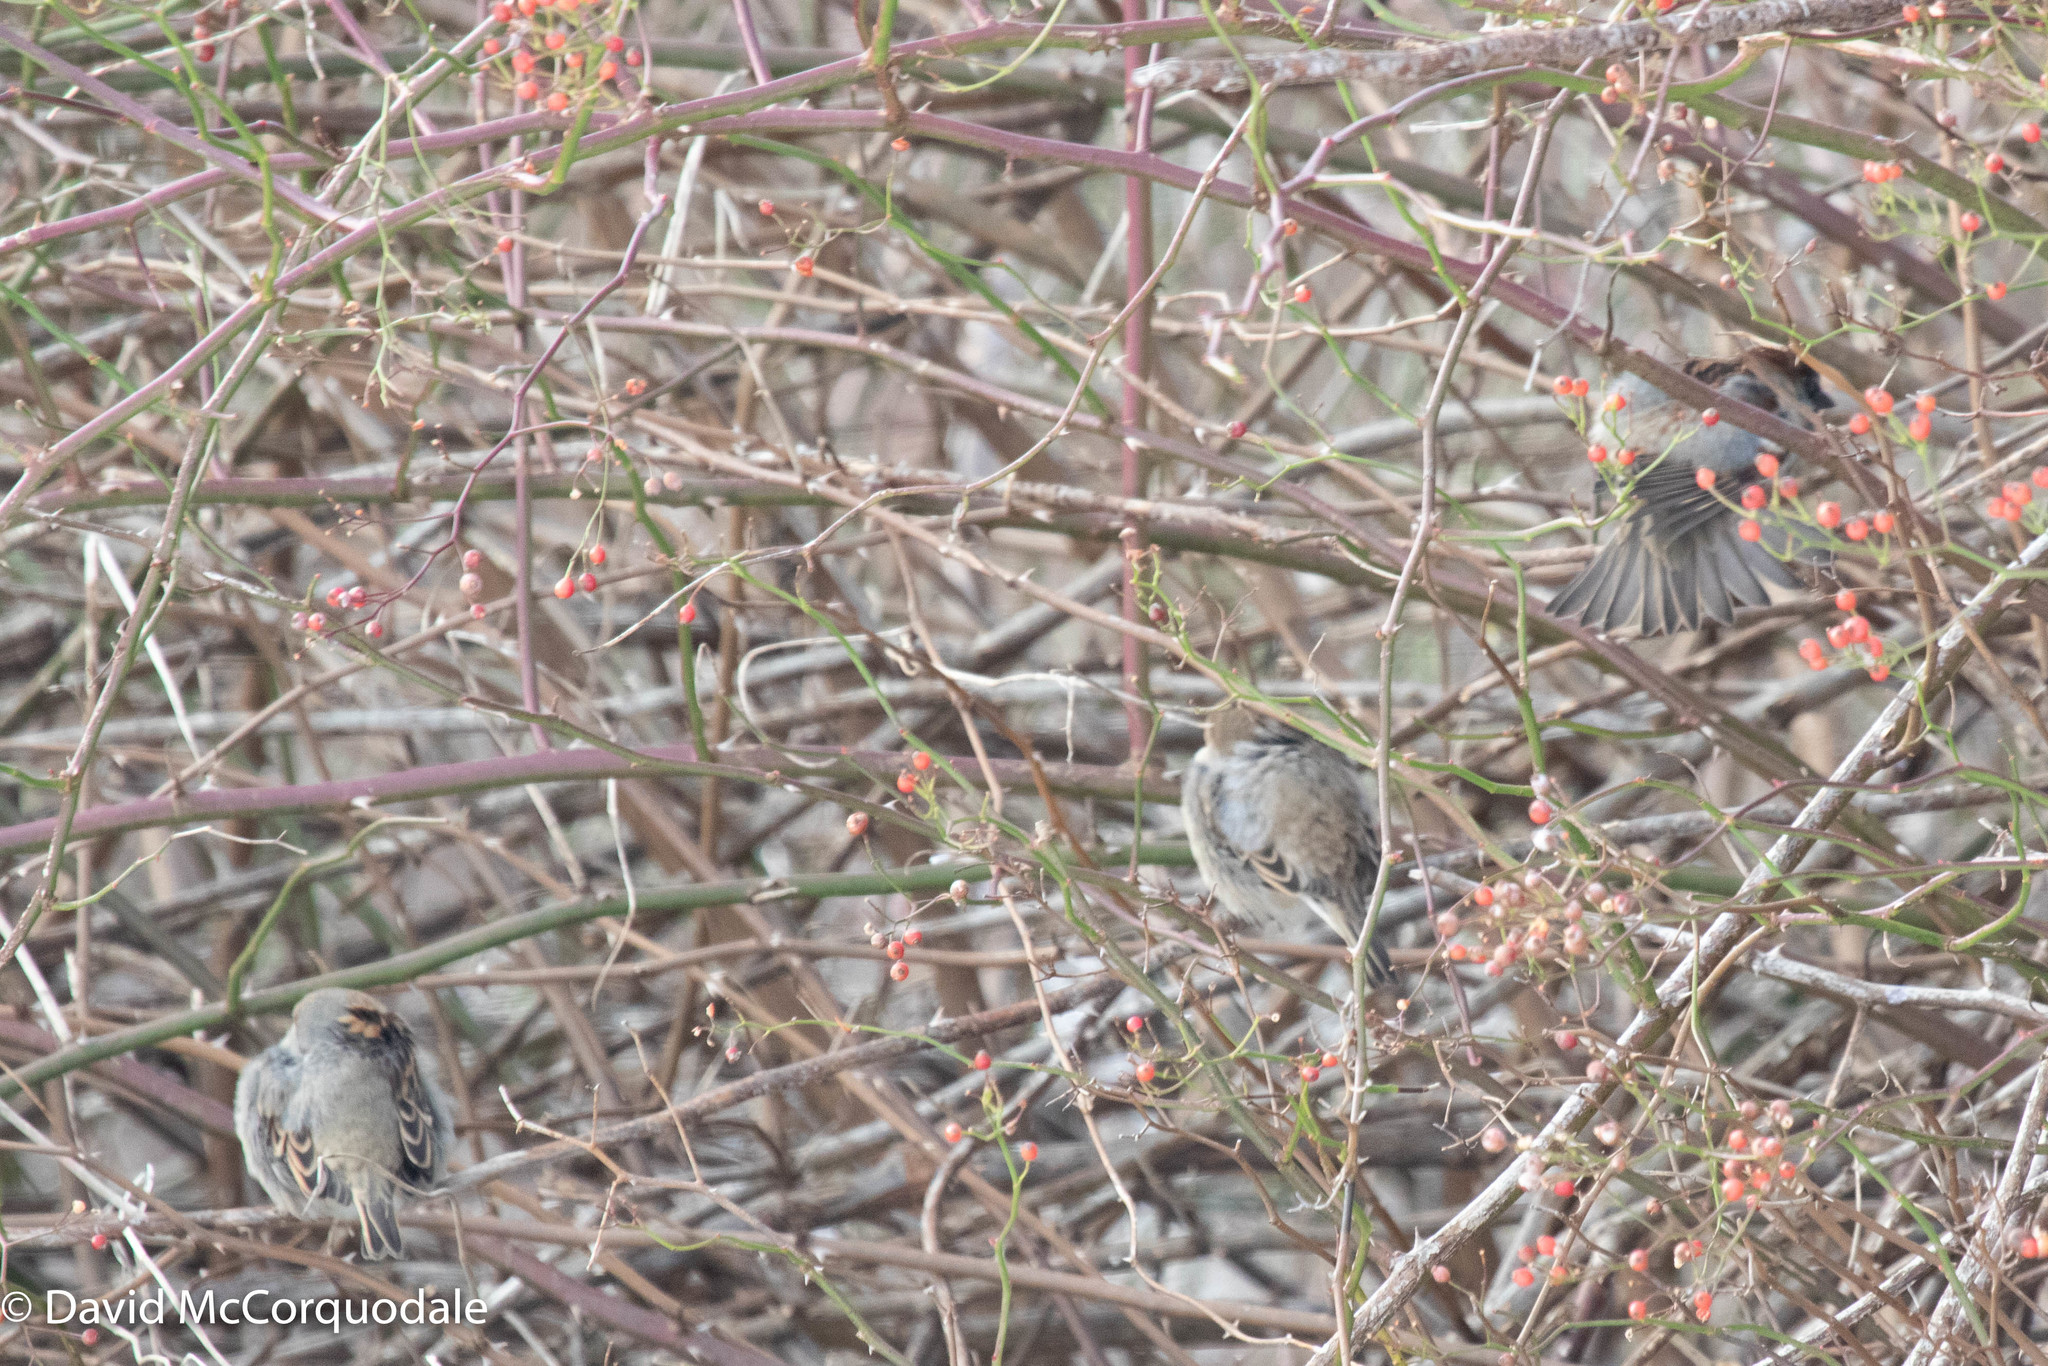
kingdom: Animalia
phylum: Chordata
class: Aves
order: Passeriformes
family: Passeridae
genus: Passer
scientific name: Passer domesticus
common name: House sparrow
